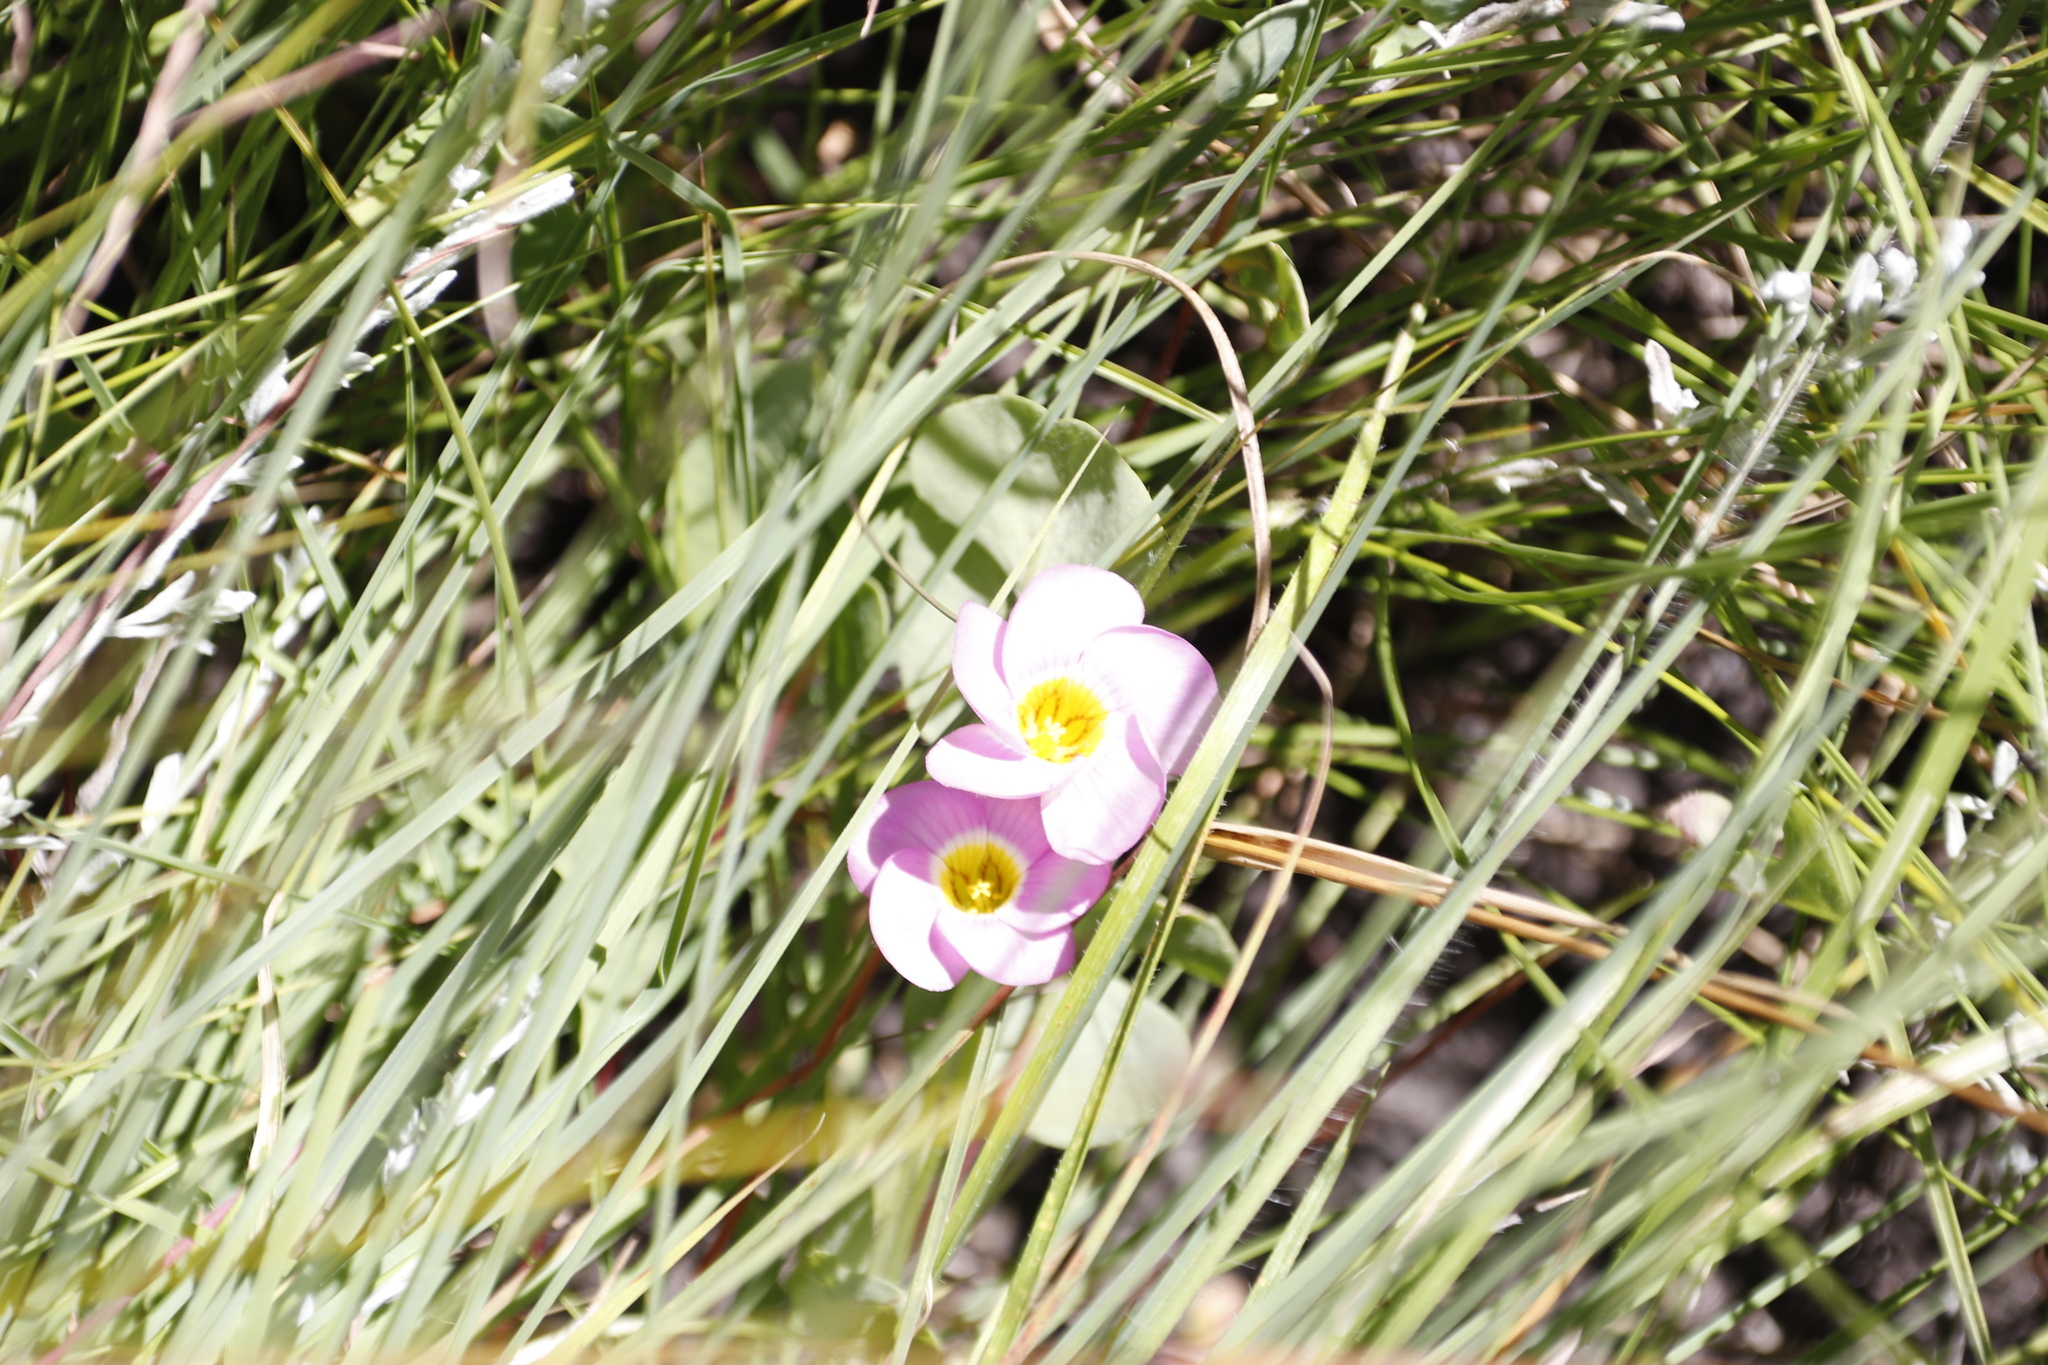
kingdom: Plantae
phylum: Tracheophyta
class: Magnoliopsida
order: Oxalidales
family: Oxalidaceae
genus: Oxalis
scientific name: Oxalis obliquifolia
